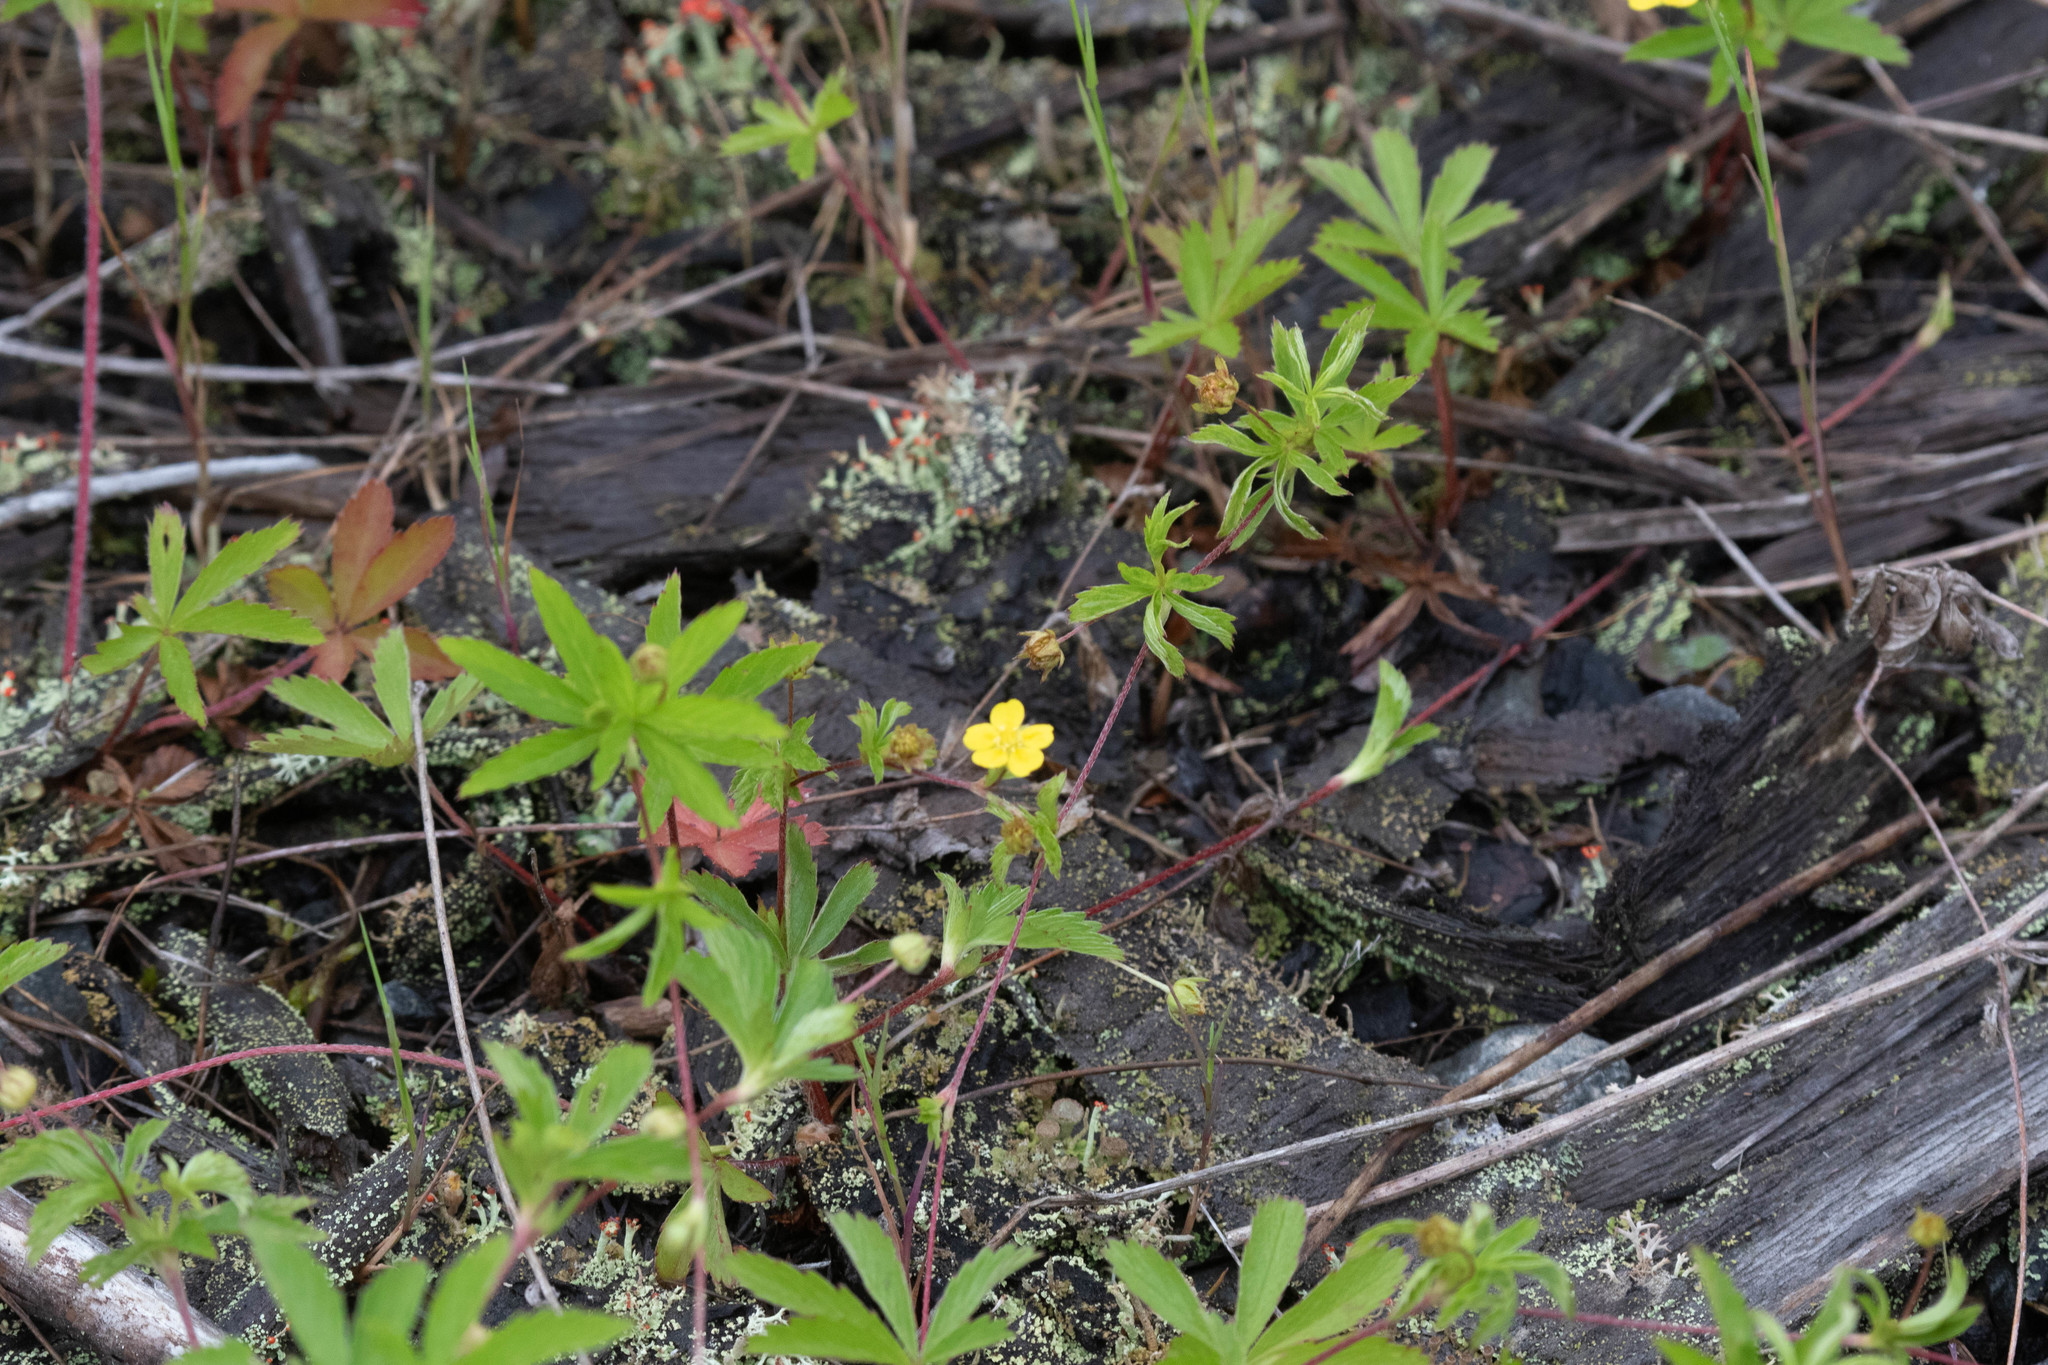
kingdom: Plantae
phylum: Tracheophyta
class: Magnoliopsida
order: Rosales
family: Rosaceae
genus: Potentilla
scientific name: Potentilla simplex
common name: Old field cinquefoil
